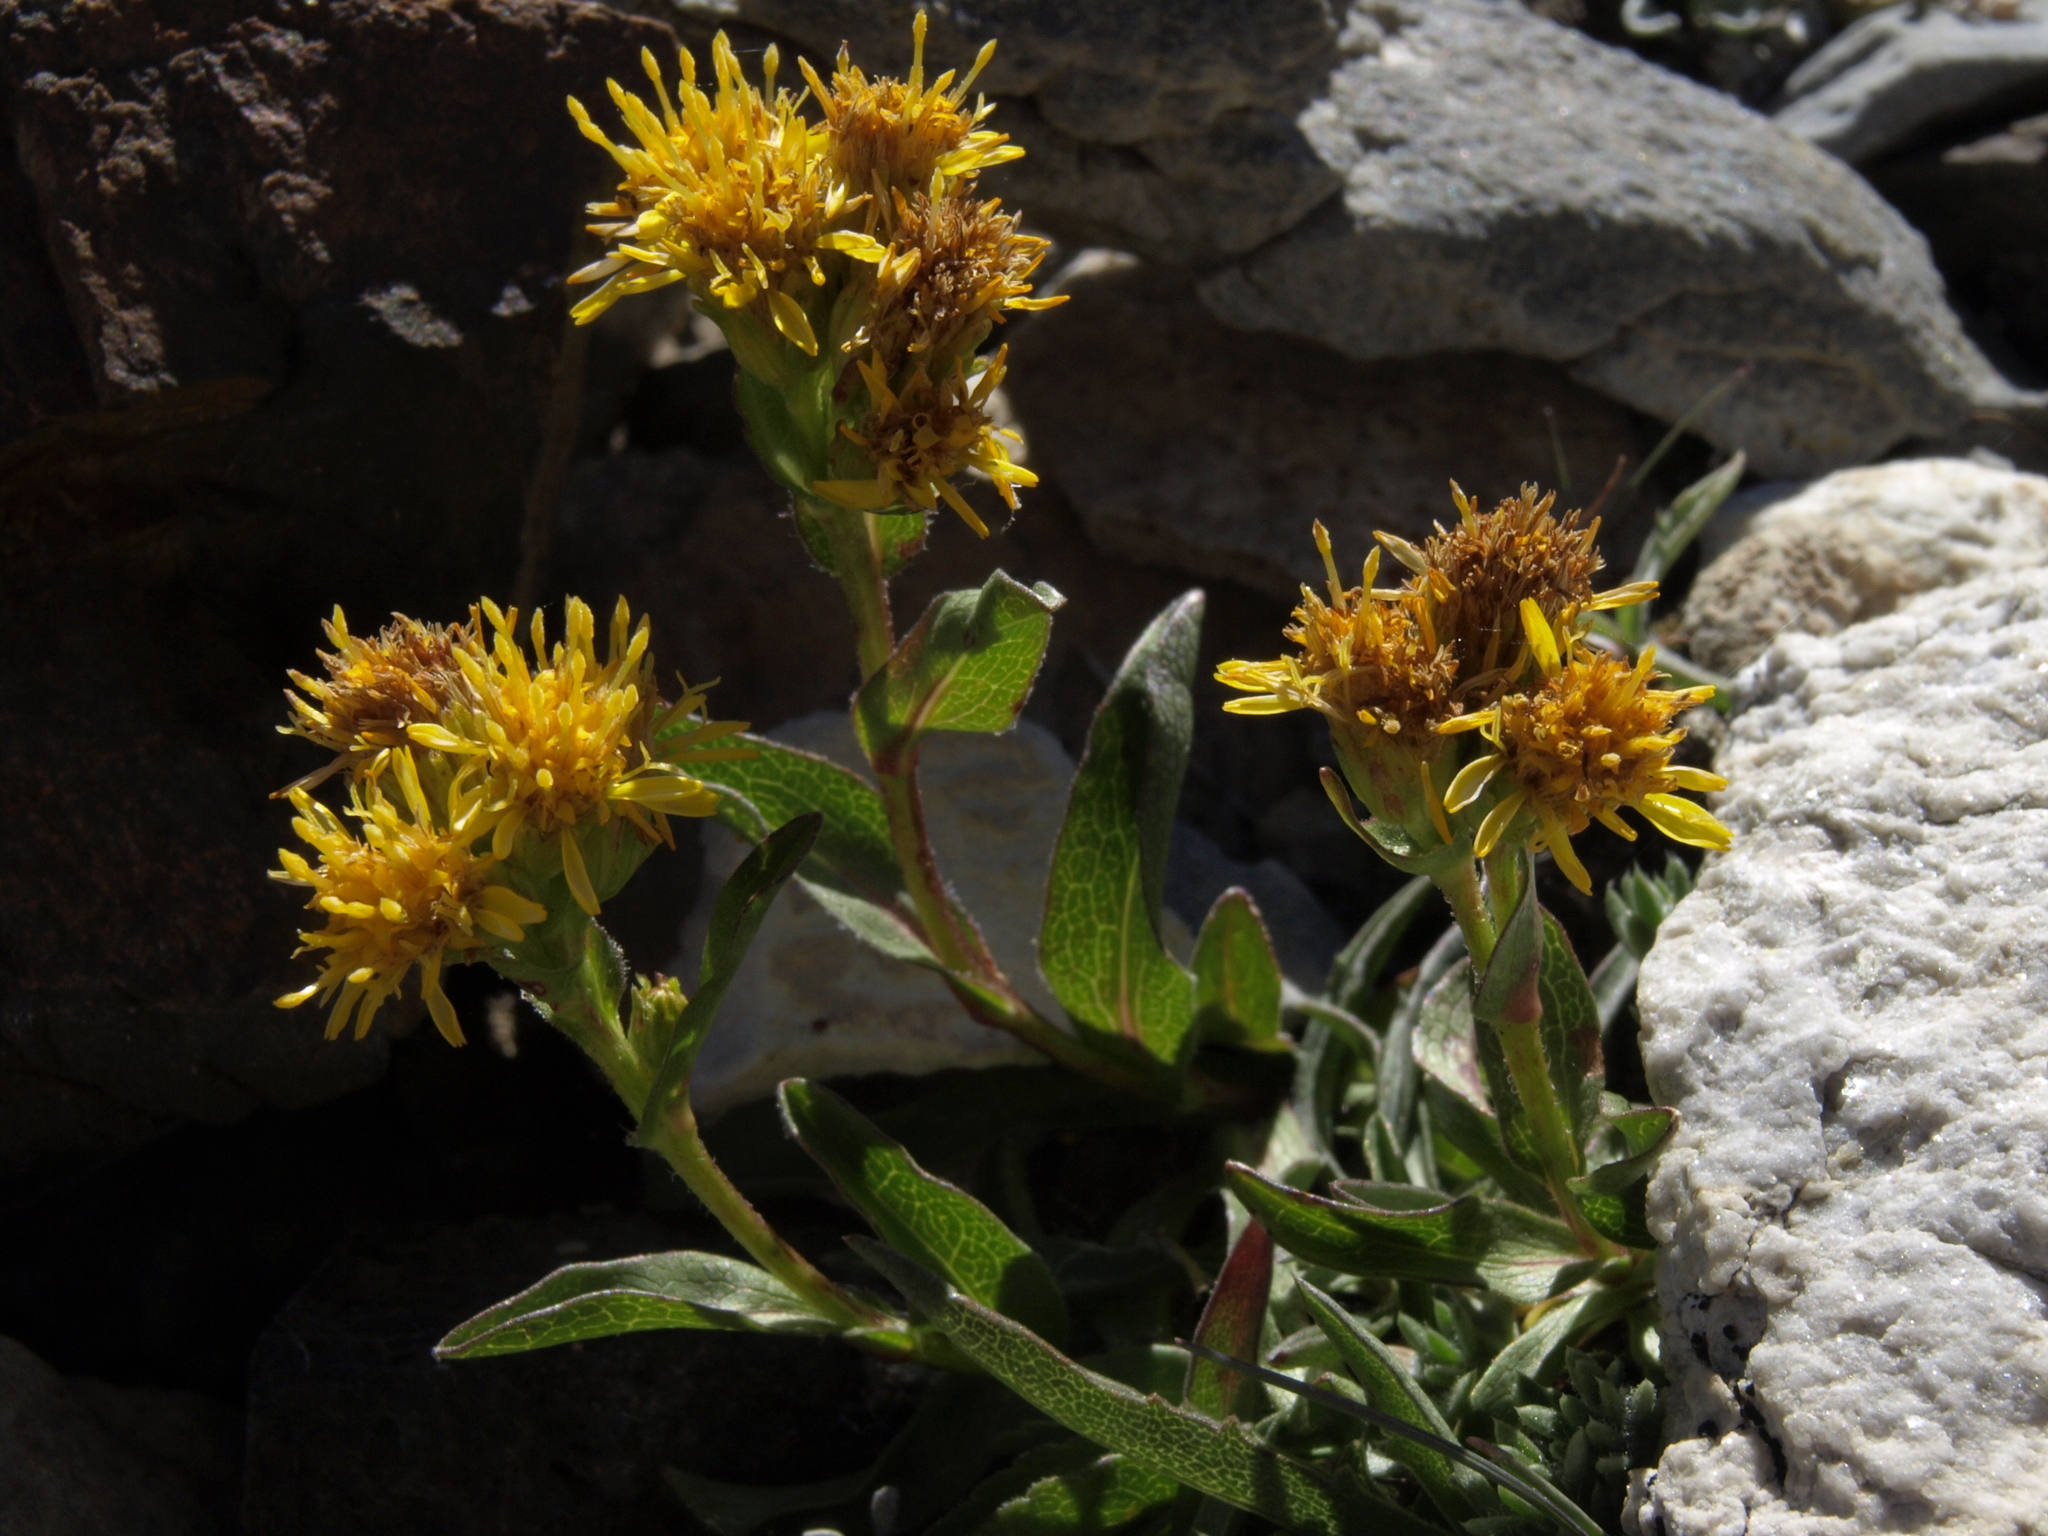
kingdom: Plantae
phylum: Tracheophyta
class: Magnoliopsida
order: Asterales
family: Asteraceae
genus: Solidago
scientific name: Solidago multiradiata
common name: Northern goldenrod
